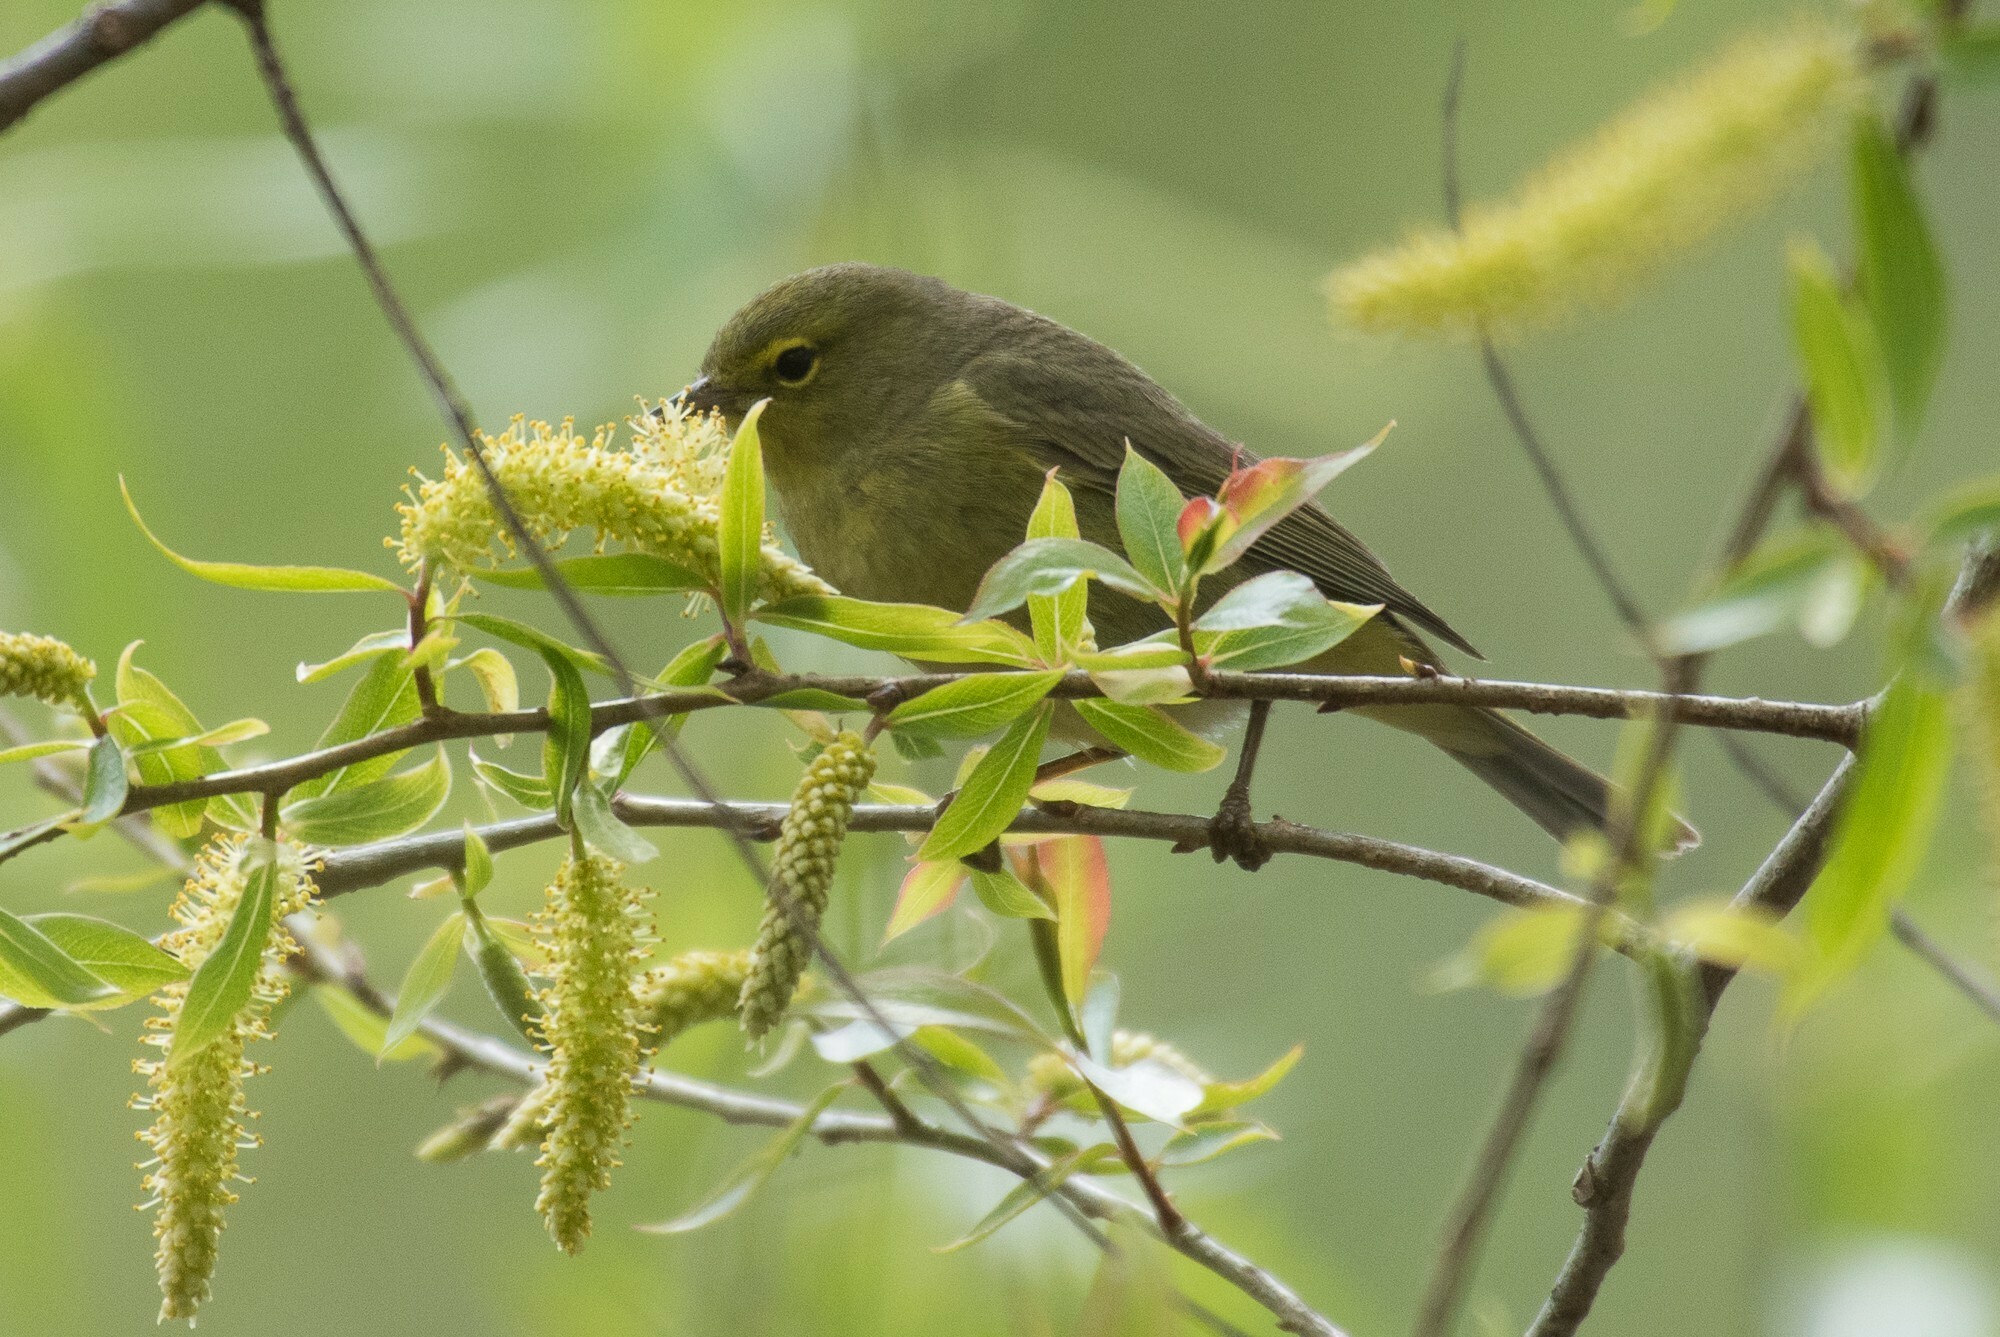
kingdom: Animalia
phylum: Chordata
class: Aves
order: Passeriformes
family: Parulidae
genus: Leiothlypis
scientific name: Leiothlypis celata
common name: Orange-crowned warbler
